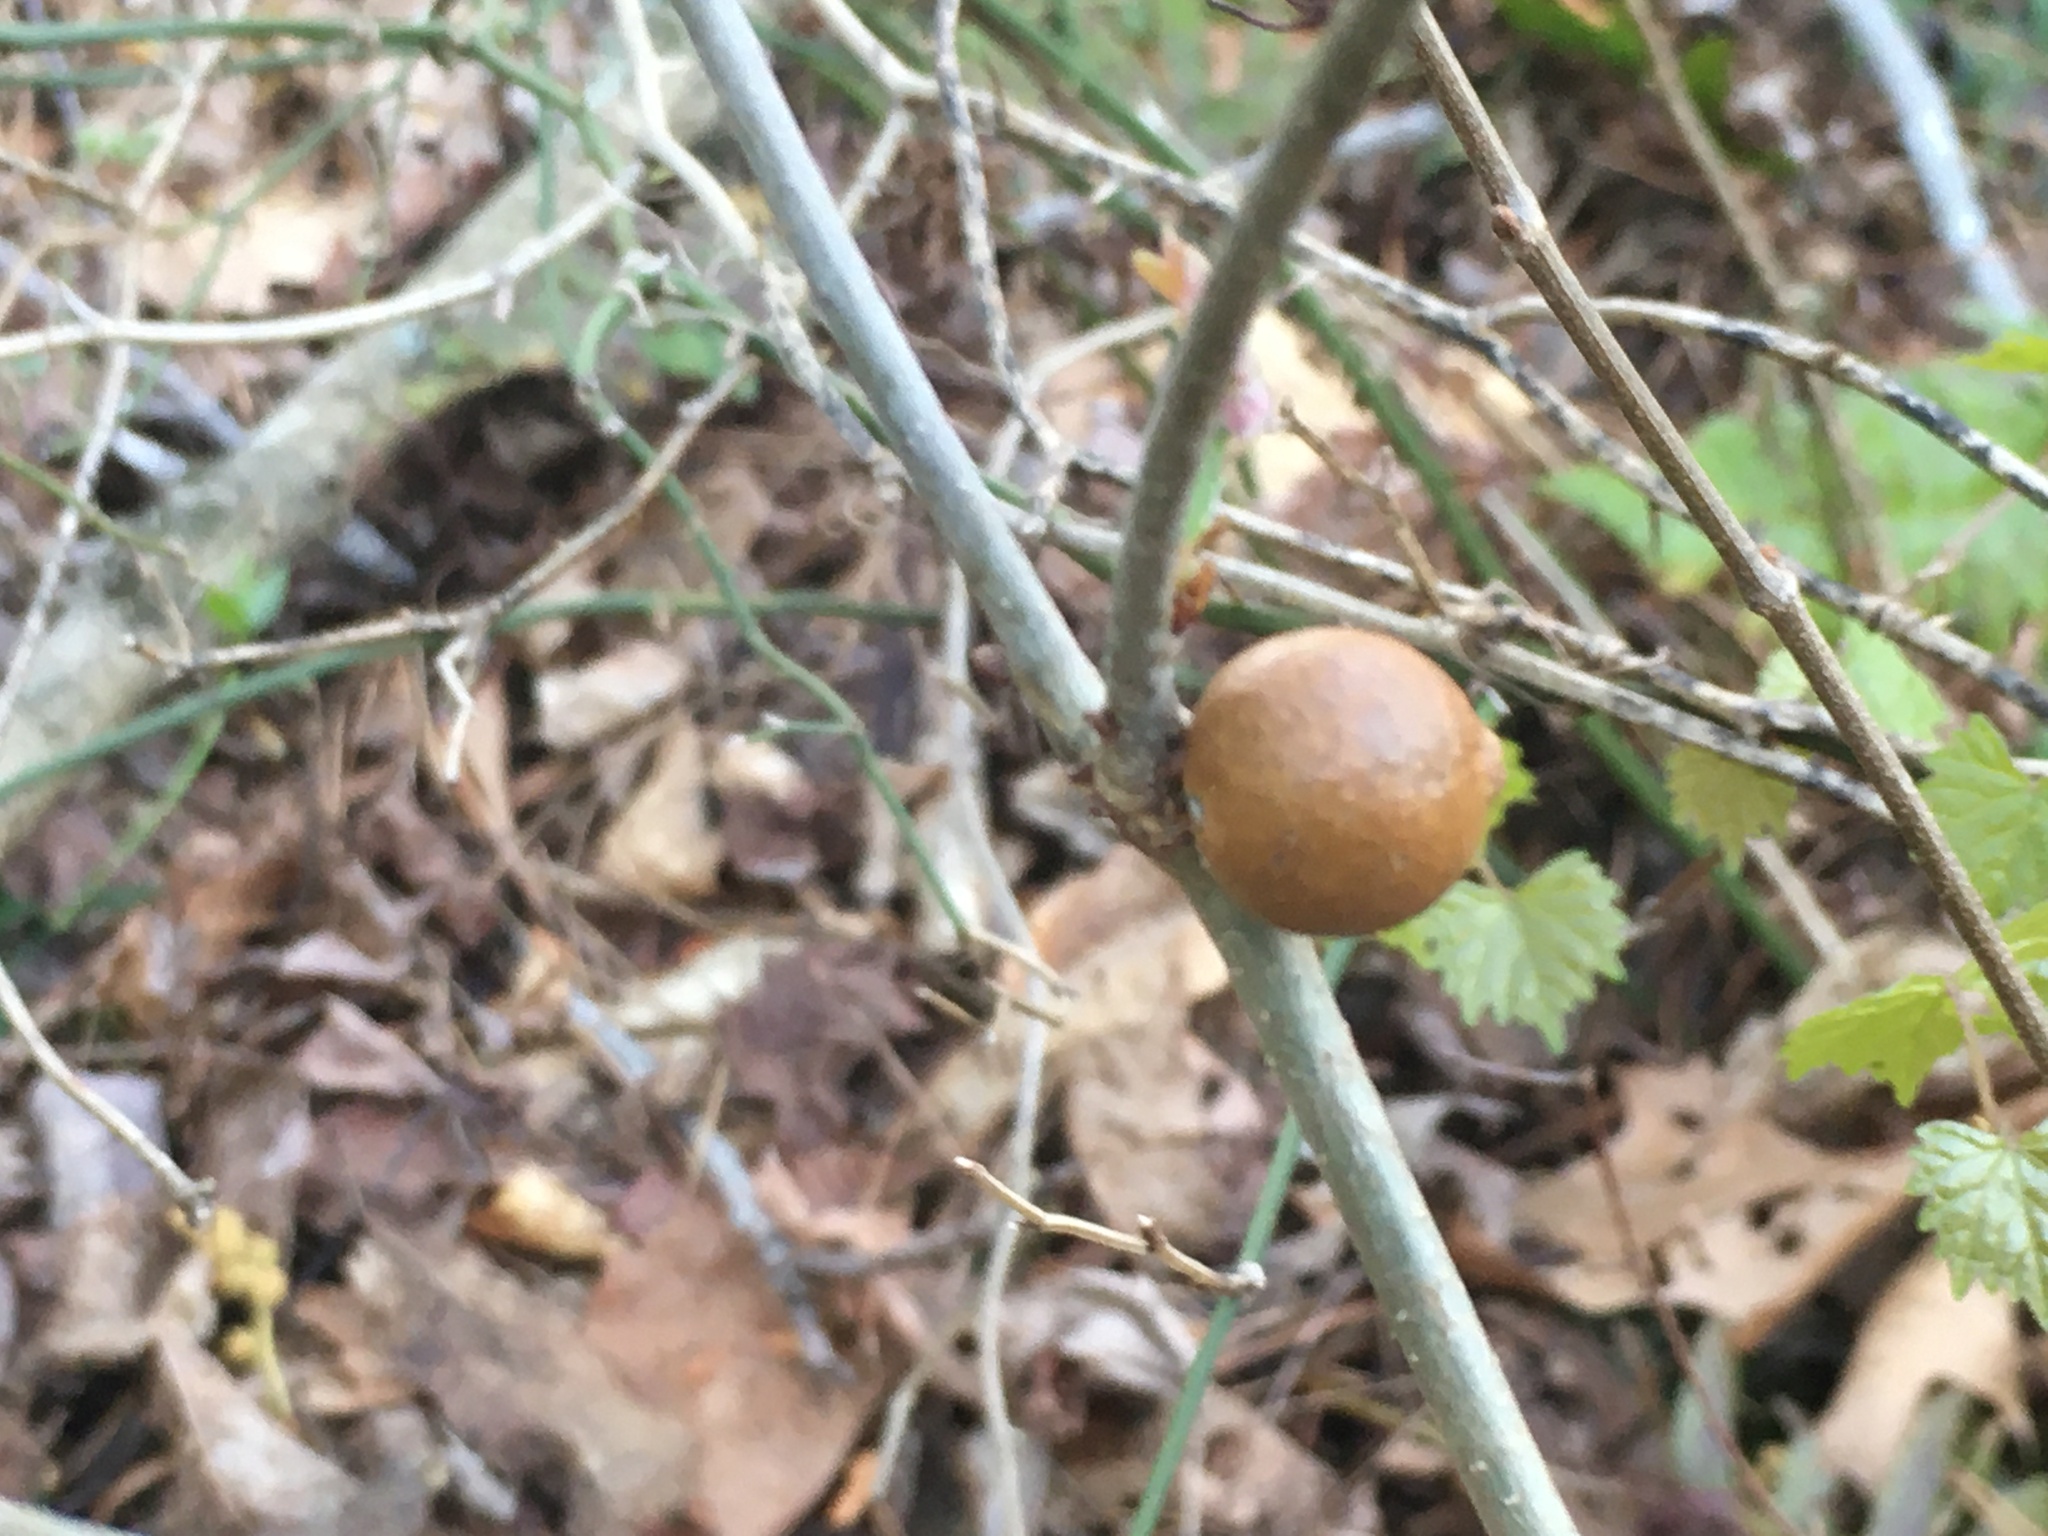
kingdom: Animalia
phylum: Arthropoda
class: Insecta
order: Hymenoptera
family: Cynipidae
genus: Disholcaspis
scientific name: Disholcaspis quercusglobulus
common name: Round bullet gall wasp
